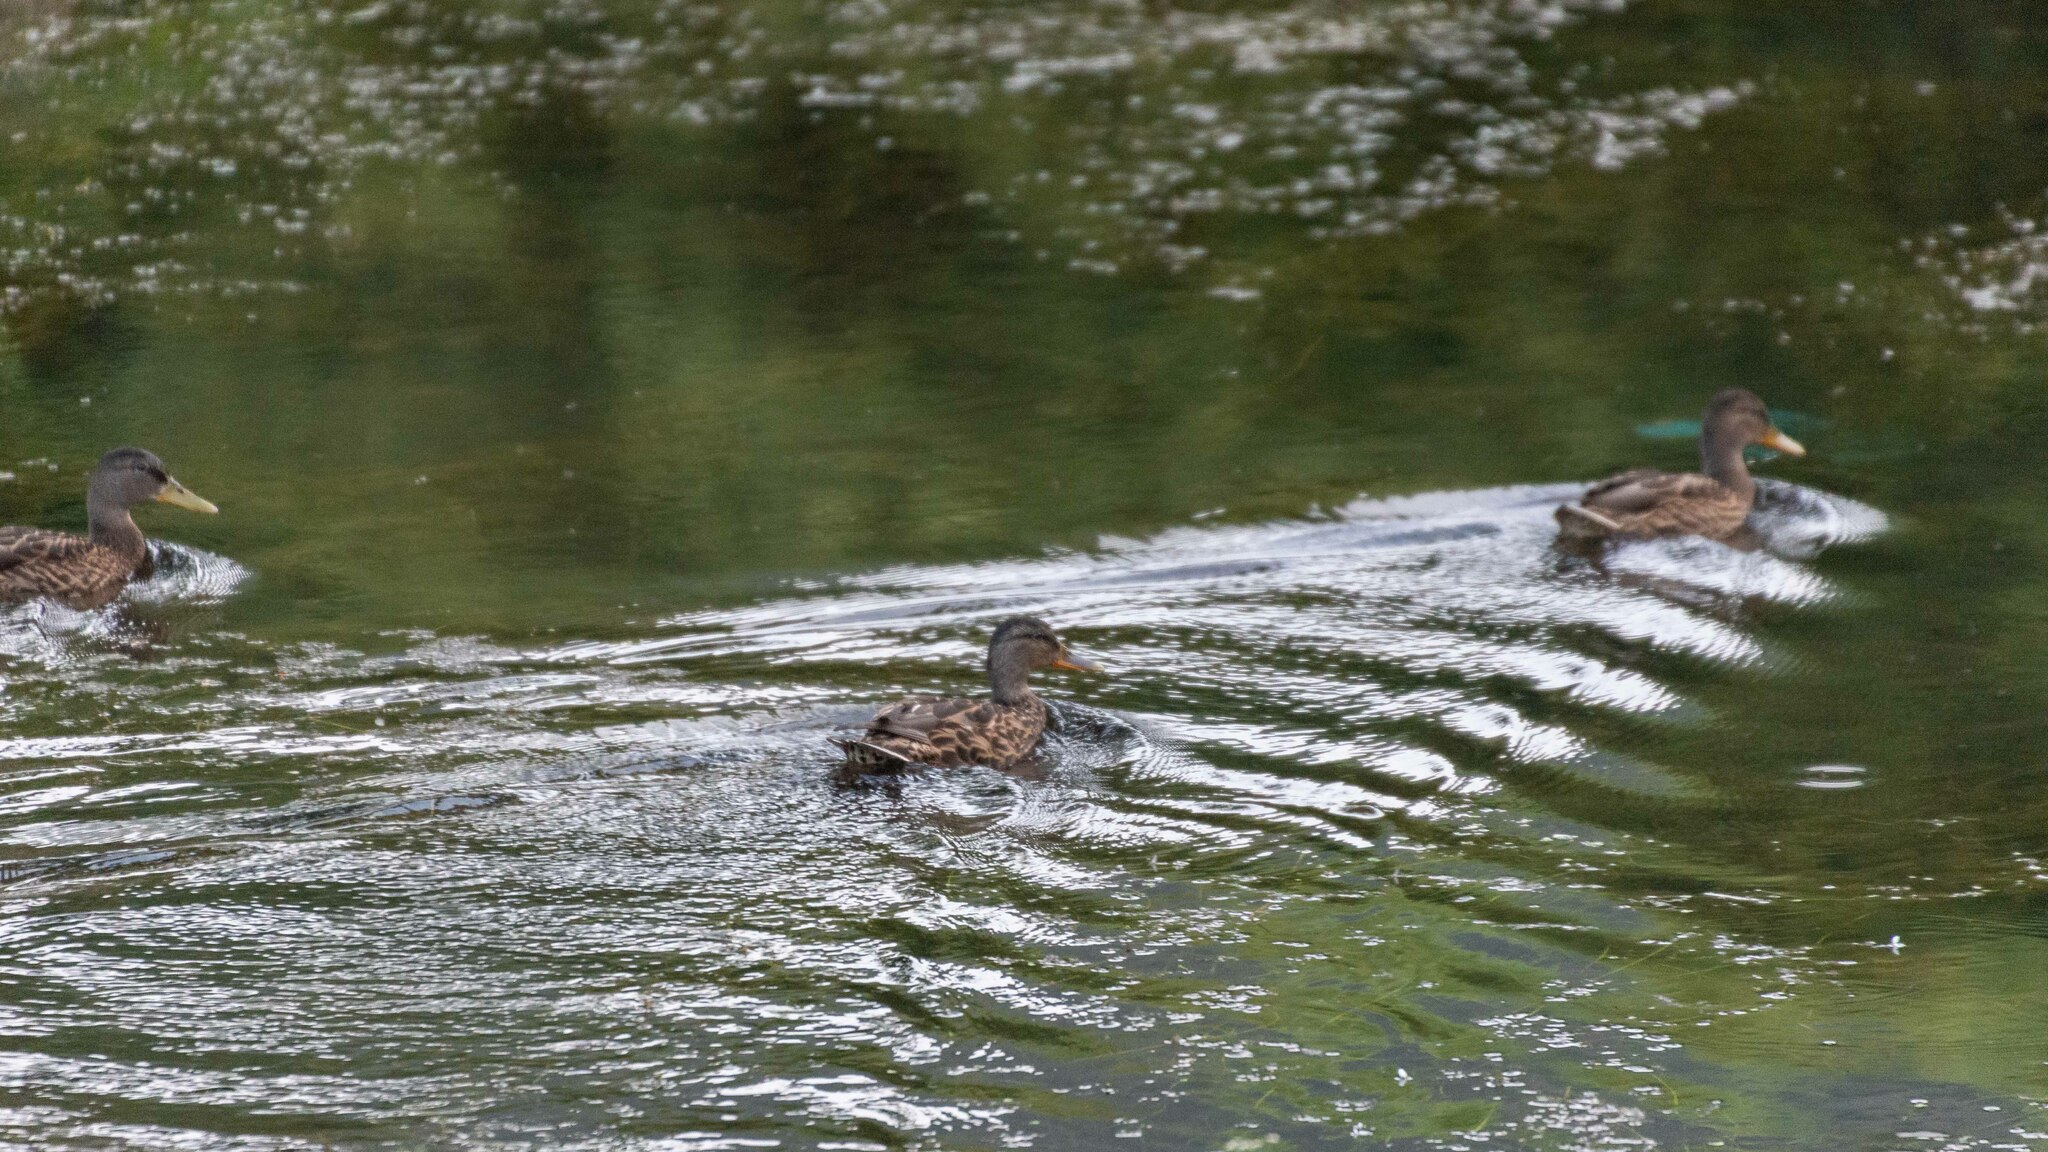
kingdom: Animalia
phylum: Chordata
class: Aves
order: Anseriformes
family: Anatidae
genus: Anas
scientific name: Anas platyrhynchos
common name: Mallard
